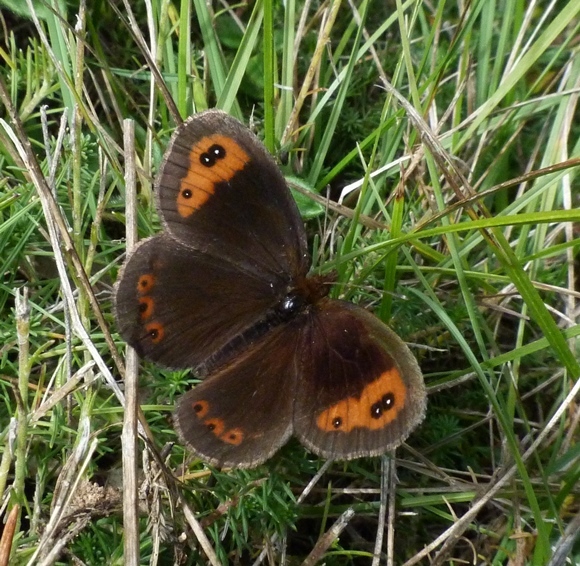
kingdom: Animalia
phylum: Arthropoda
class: Insecta
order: Lepidoptera
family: Nymphalidae
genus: Erebia
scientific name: Erebia neoridas
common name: Autumn ringlet
